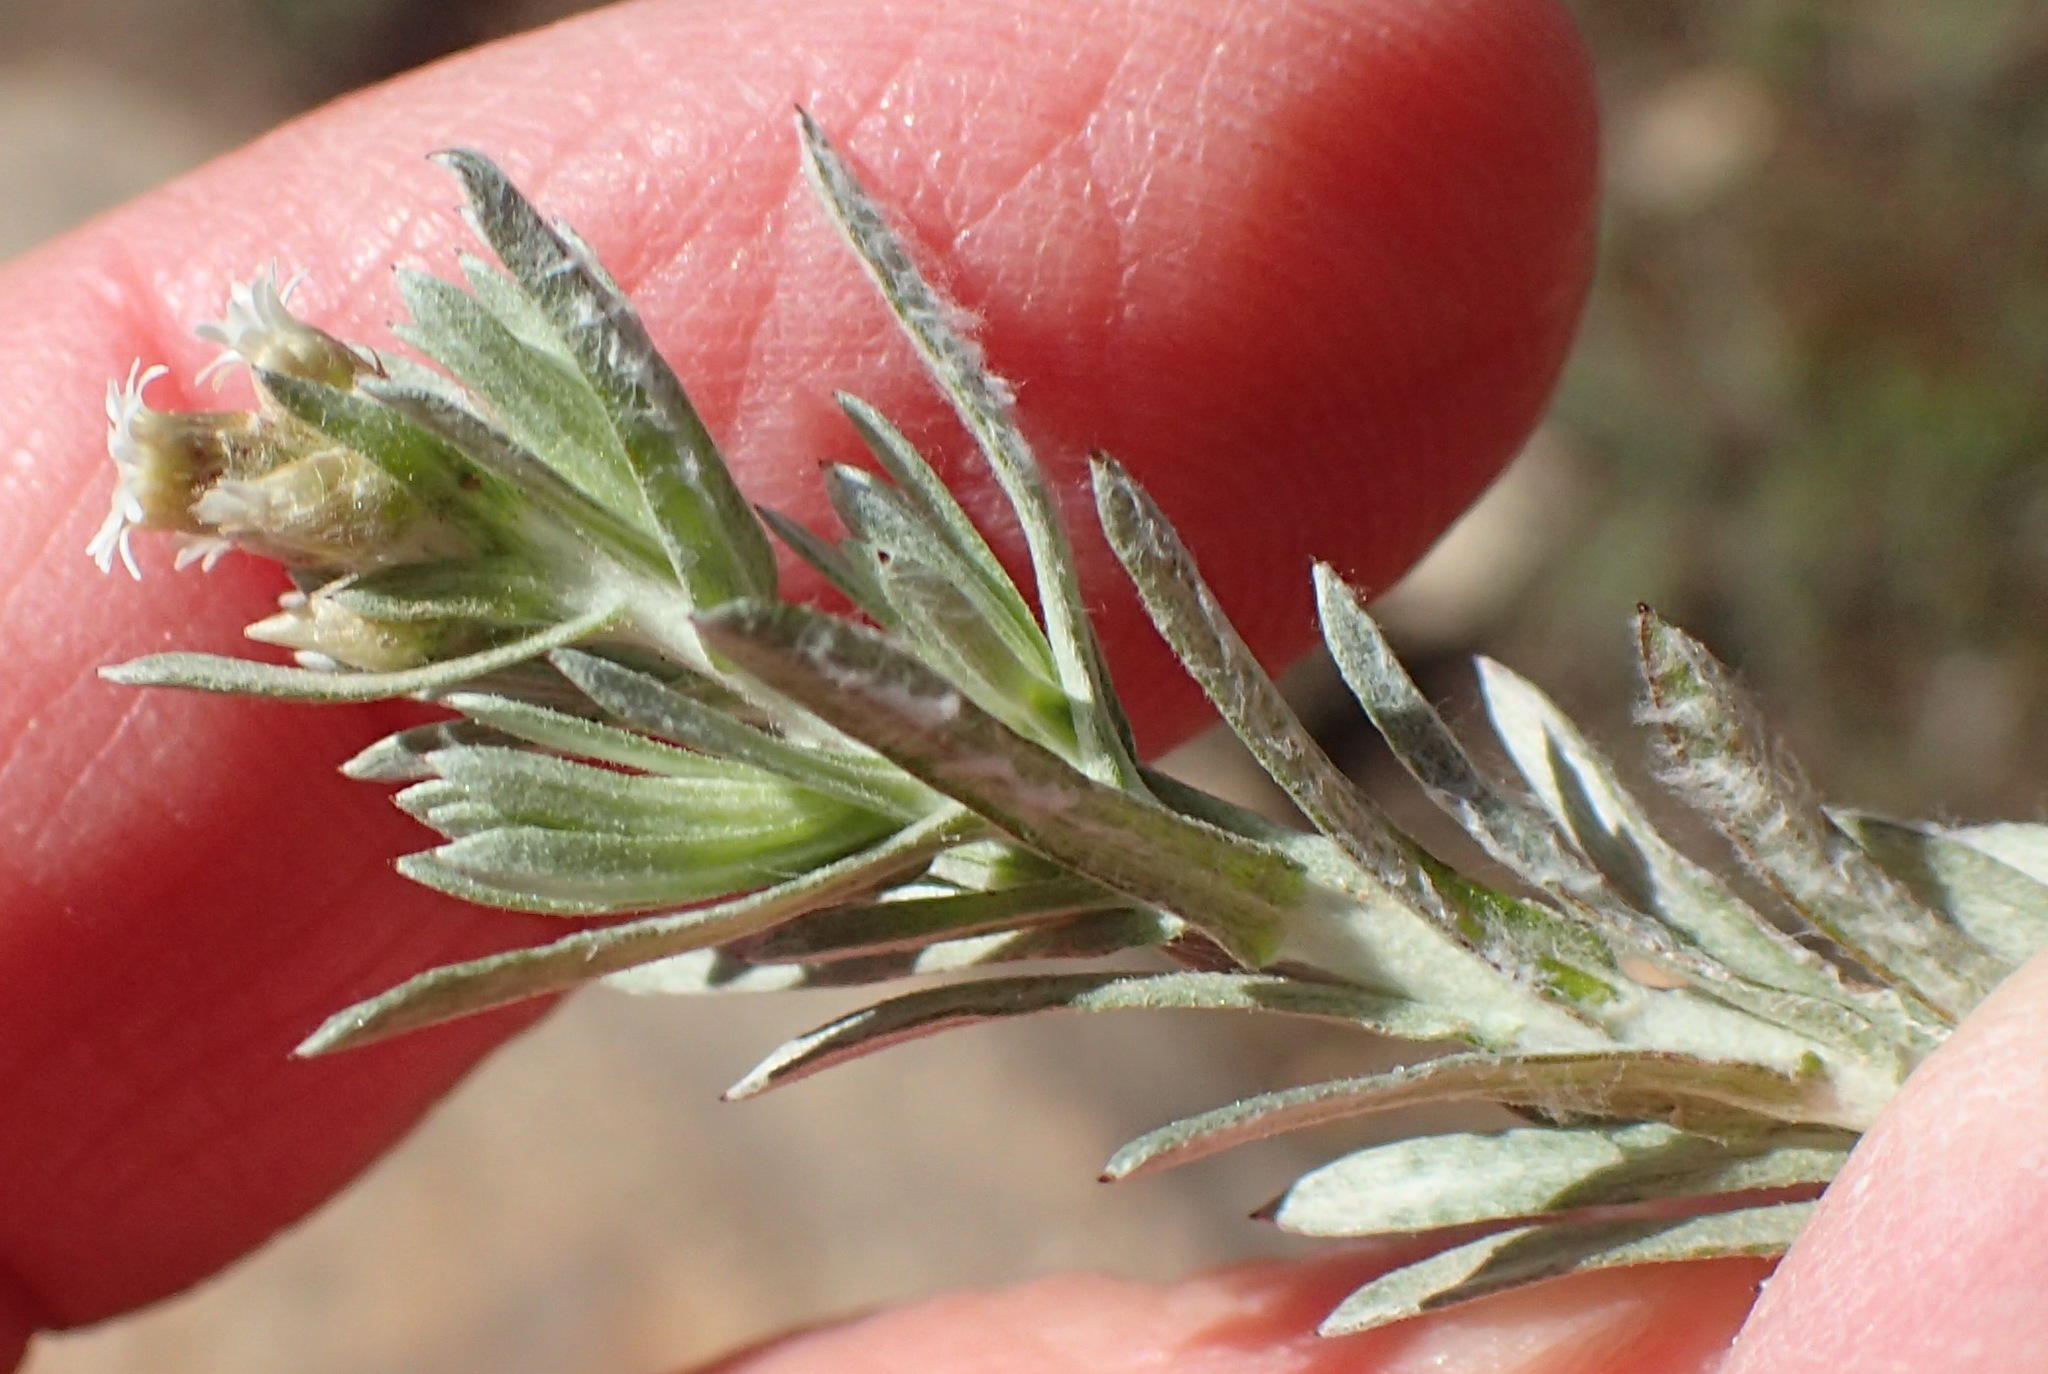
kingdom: Plantae
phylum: Tracheophyta
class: Magnoliopsida
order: Asterales
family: Asteraceae
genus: Gnaphalium
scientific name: Gnaphalium capense
